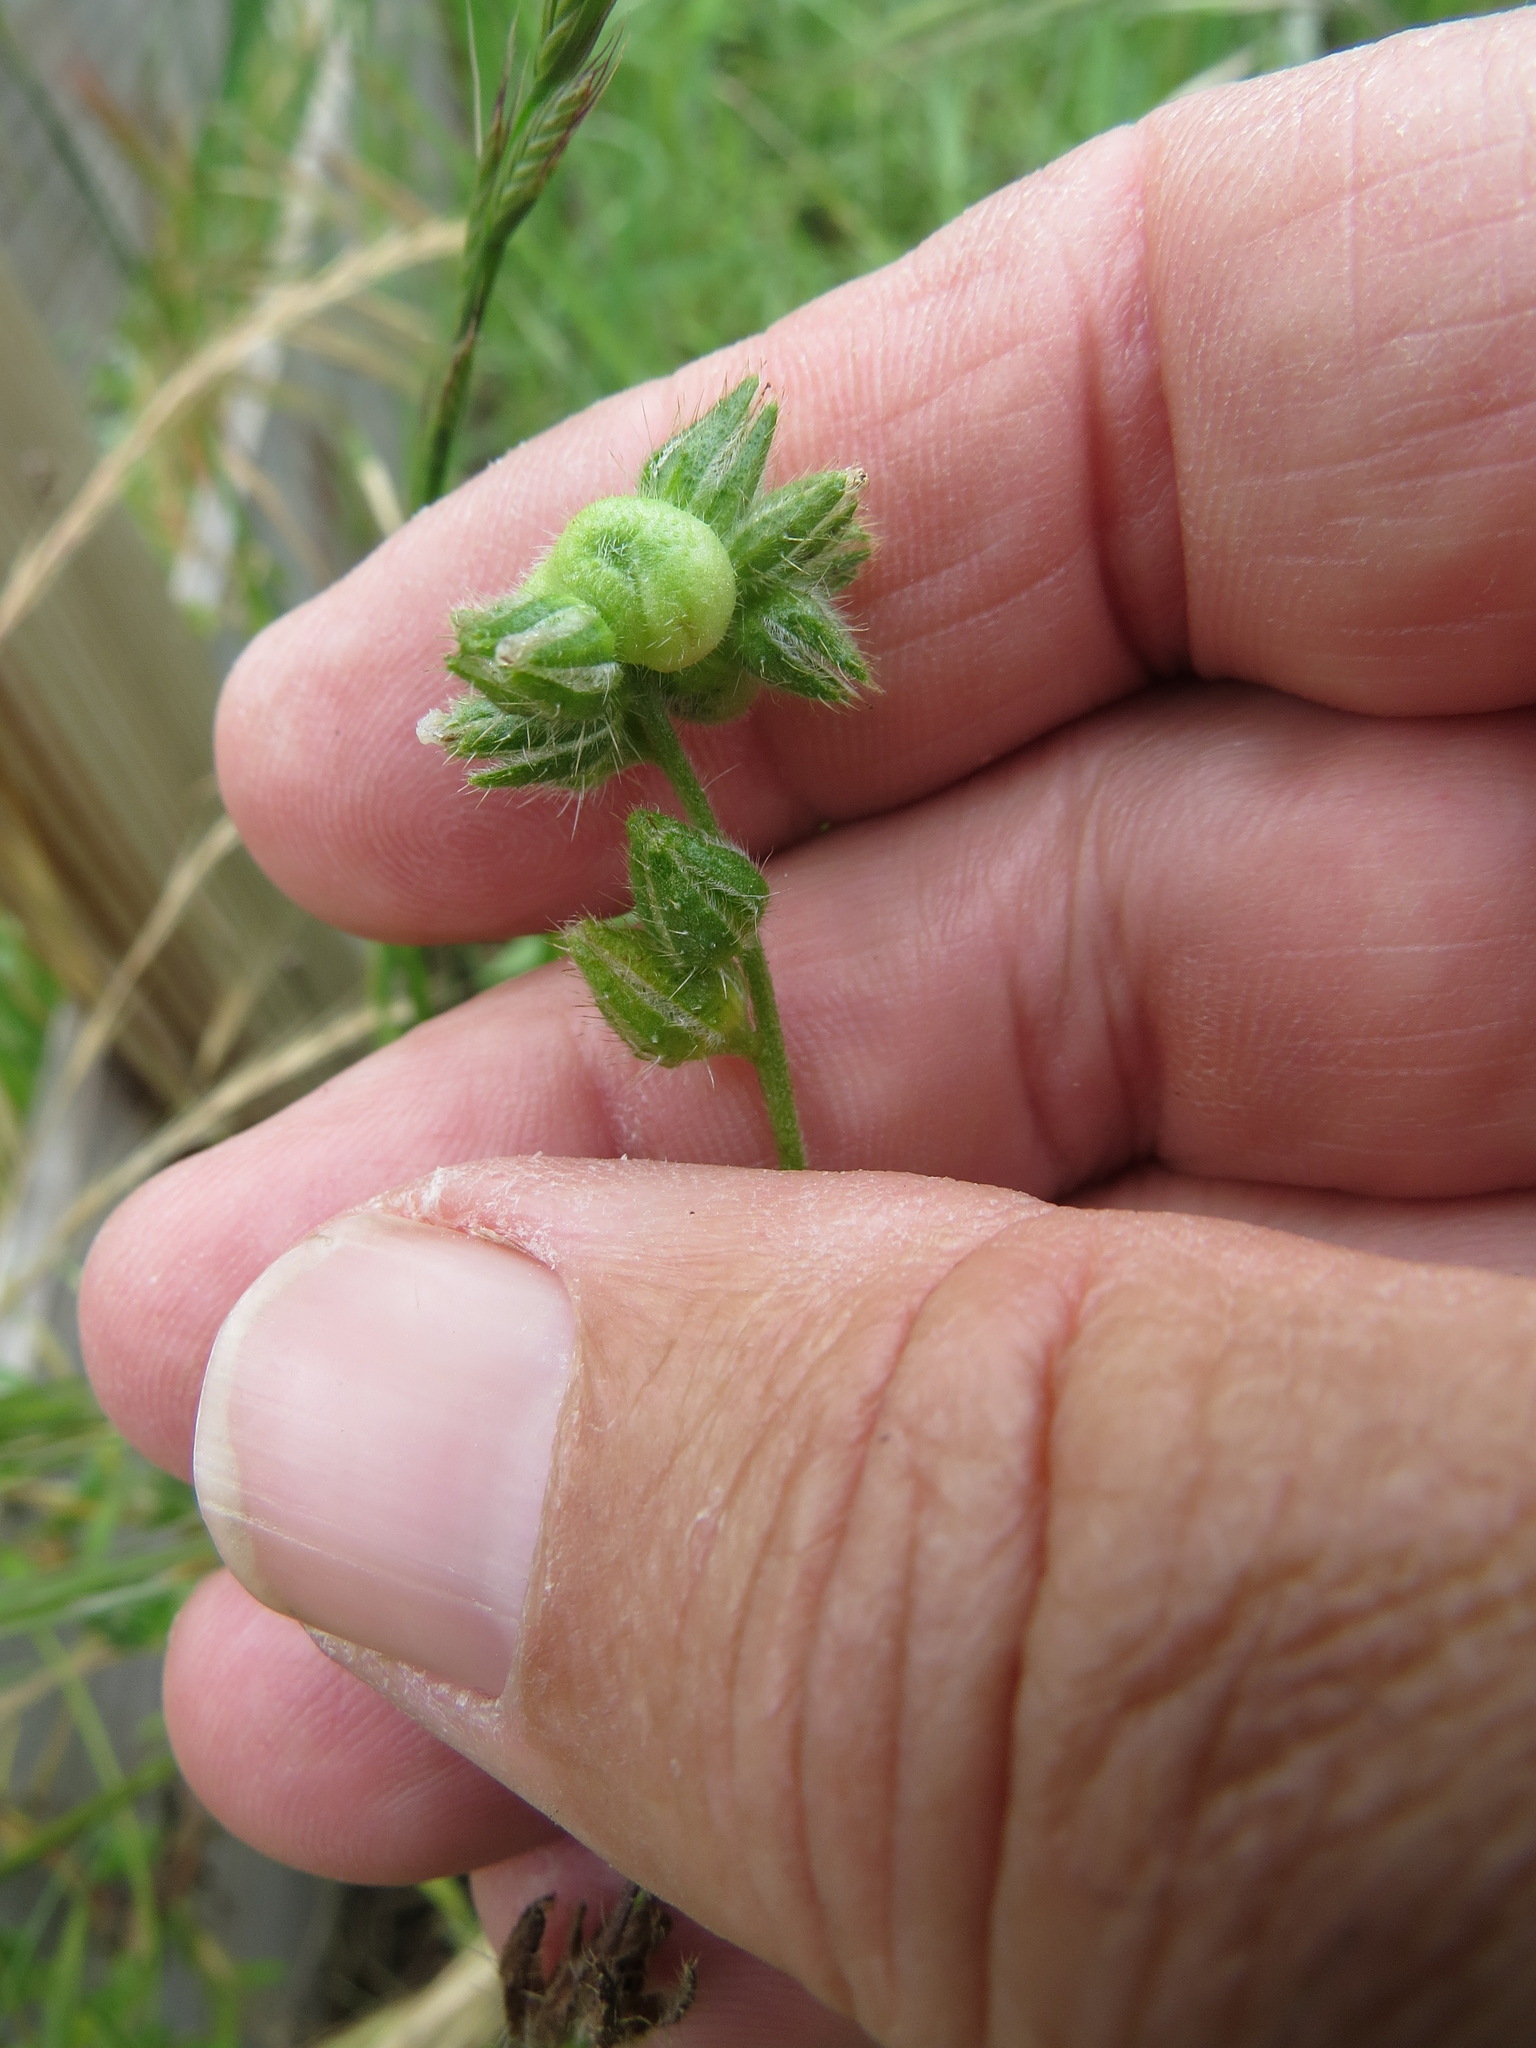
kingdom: Animalia
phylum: Arthropoda
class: Insecta
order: Diptera
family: Cecidomyiidae
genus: Schizomyia
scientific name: Schizomyia macrofila
